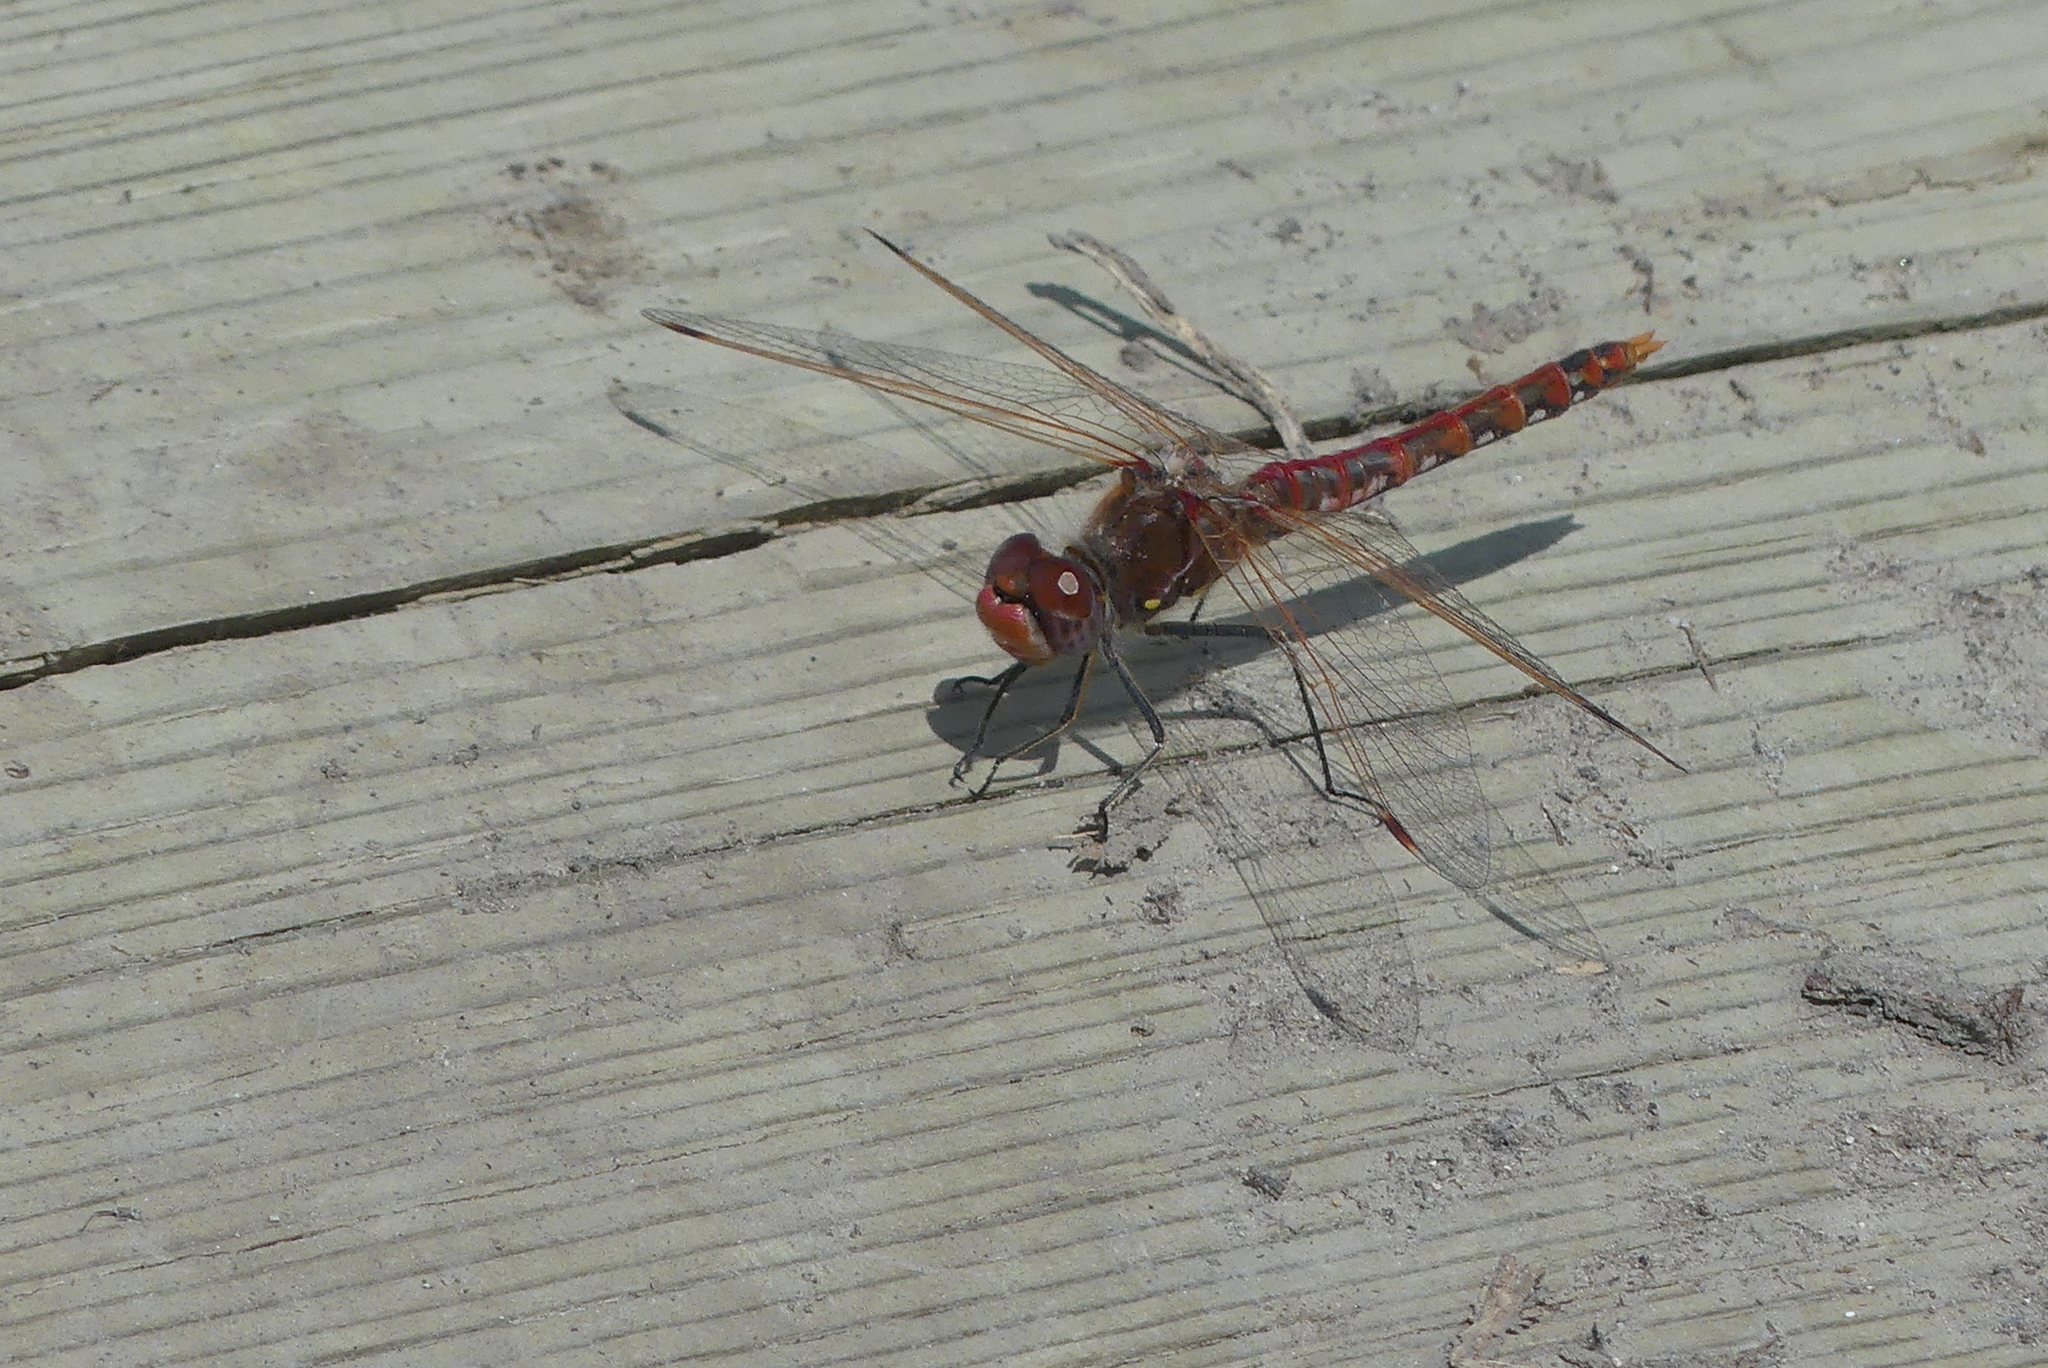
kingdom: Animalia
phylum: Arthropoda
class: Insecta
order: Odonata
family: Libellulidae
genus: Sympetrum
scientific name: Sympetrum corruptum
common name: Variegated meadowhawk
